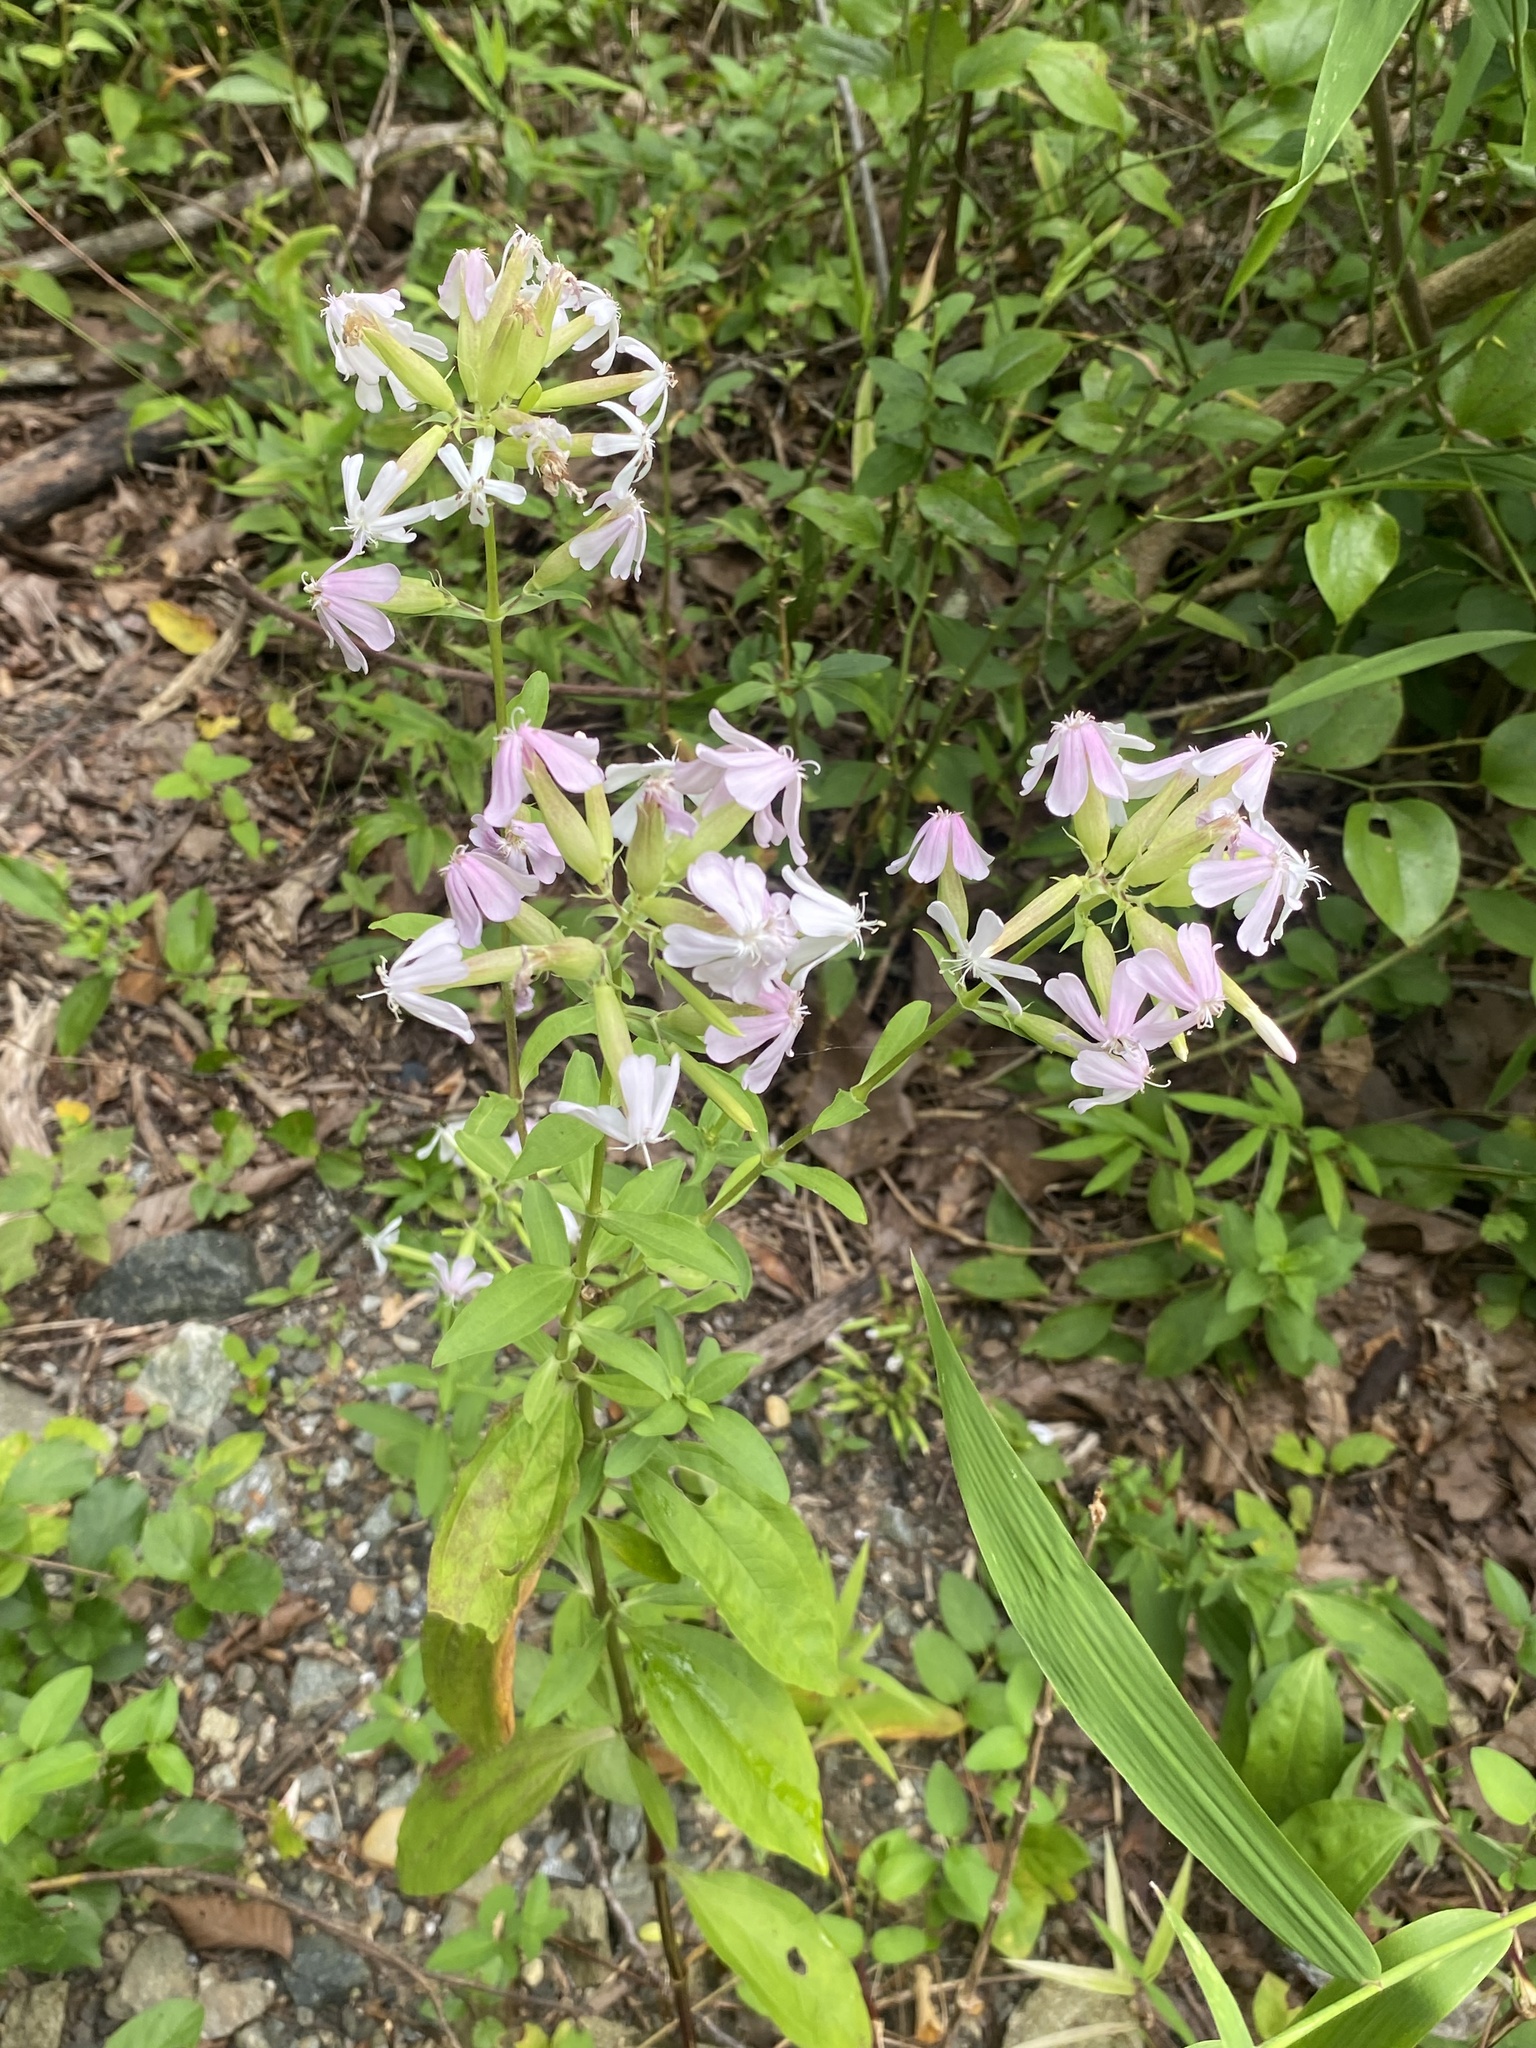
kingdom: Plantae
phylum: Tracheophyta
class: Magnoliopsida
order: Caryophyllales
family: Caryophyllaceae
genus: Saponaria
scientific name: Saponaria officinalis
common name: Soapwort
